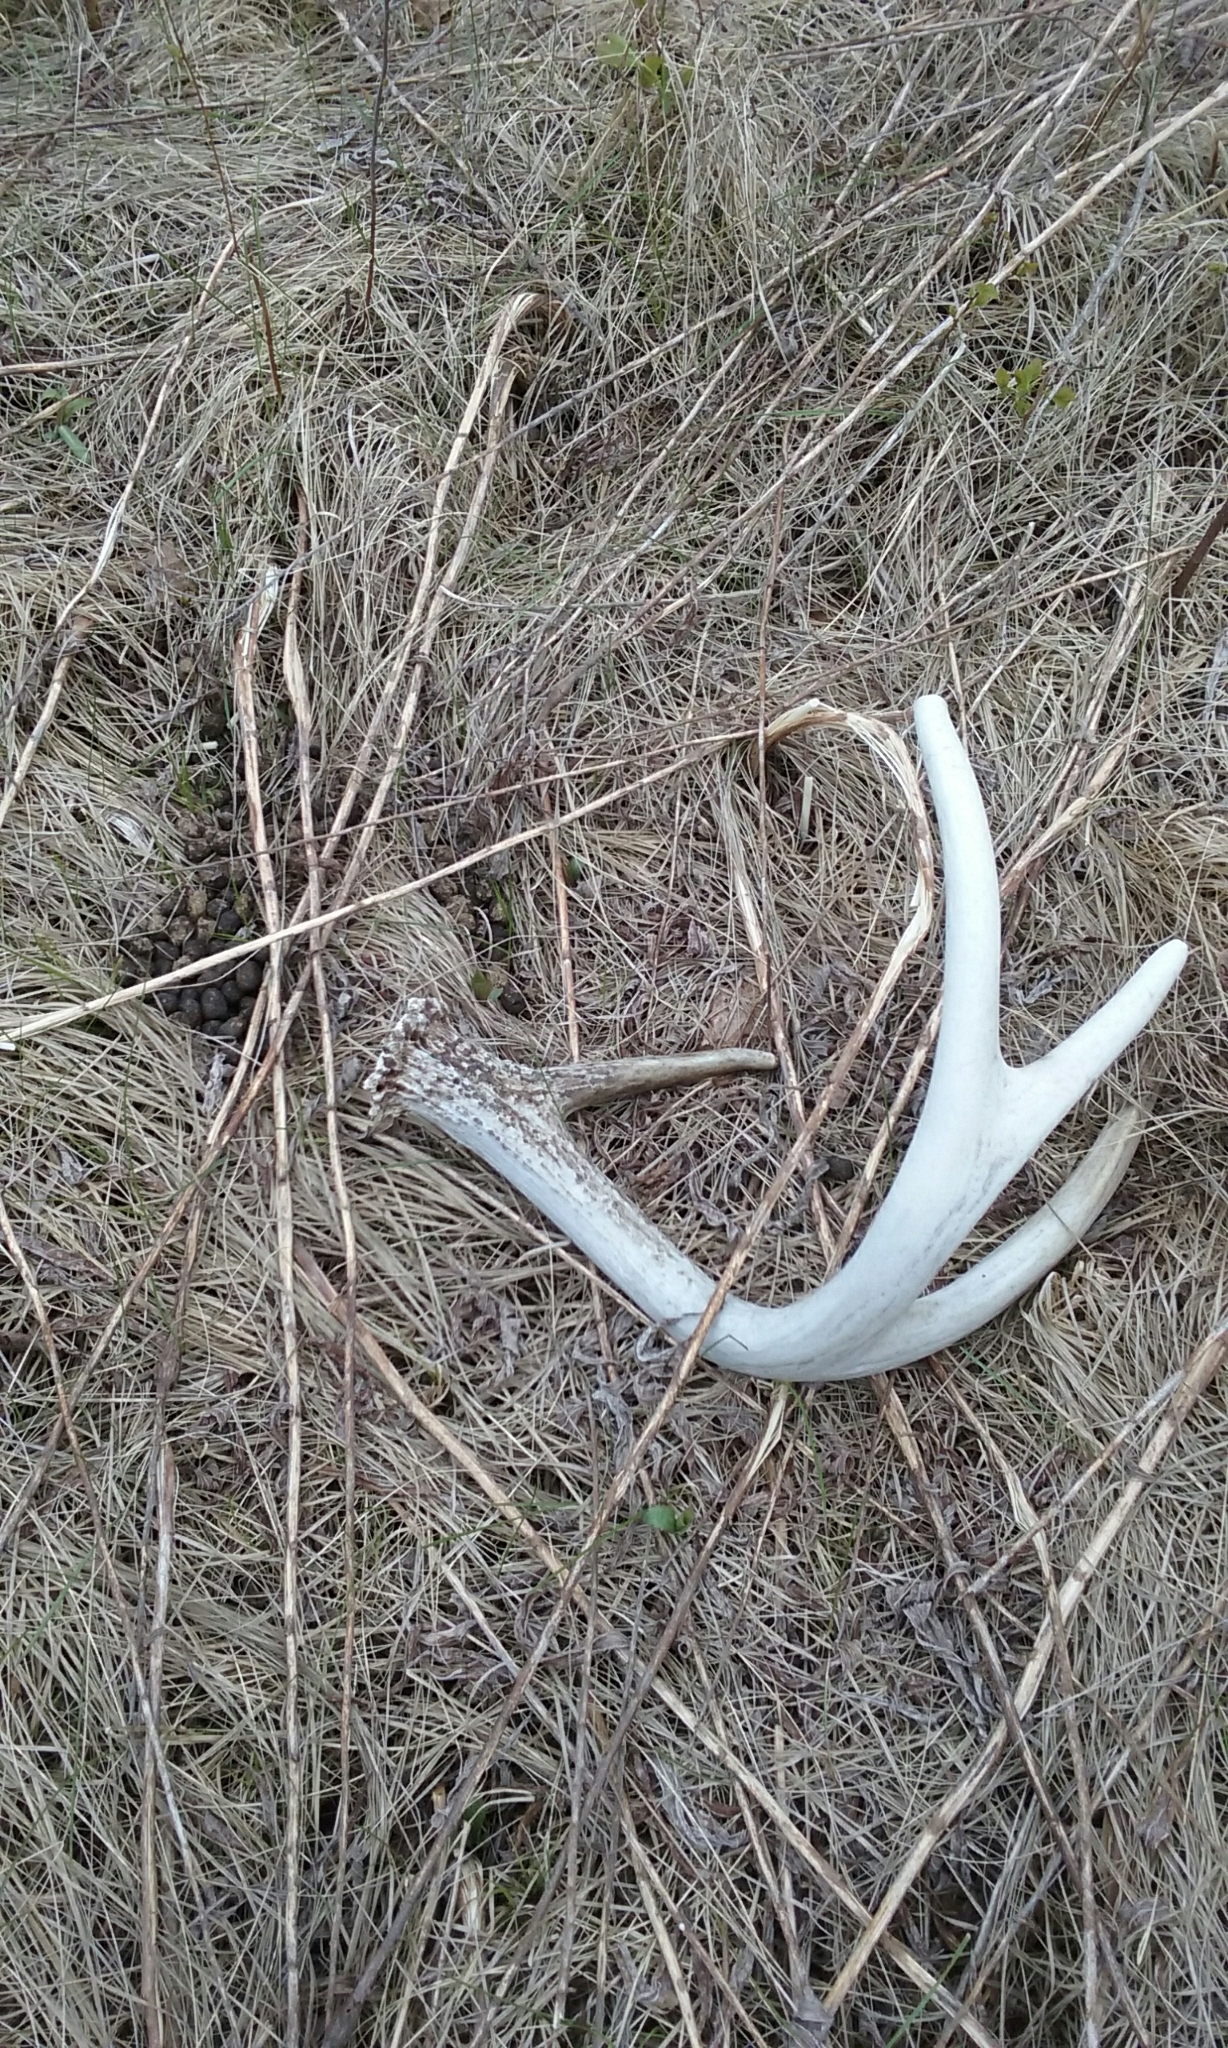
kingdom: Animalia
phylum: Chordata
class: Mammalia
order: Artiodactyla
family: Cervidae
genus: Odocoileus
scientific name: Odocoileus virginianus
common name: White-tailed deer
